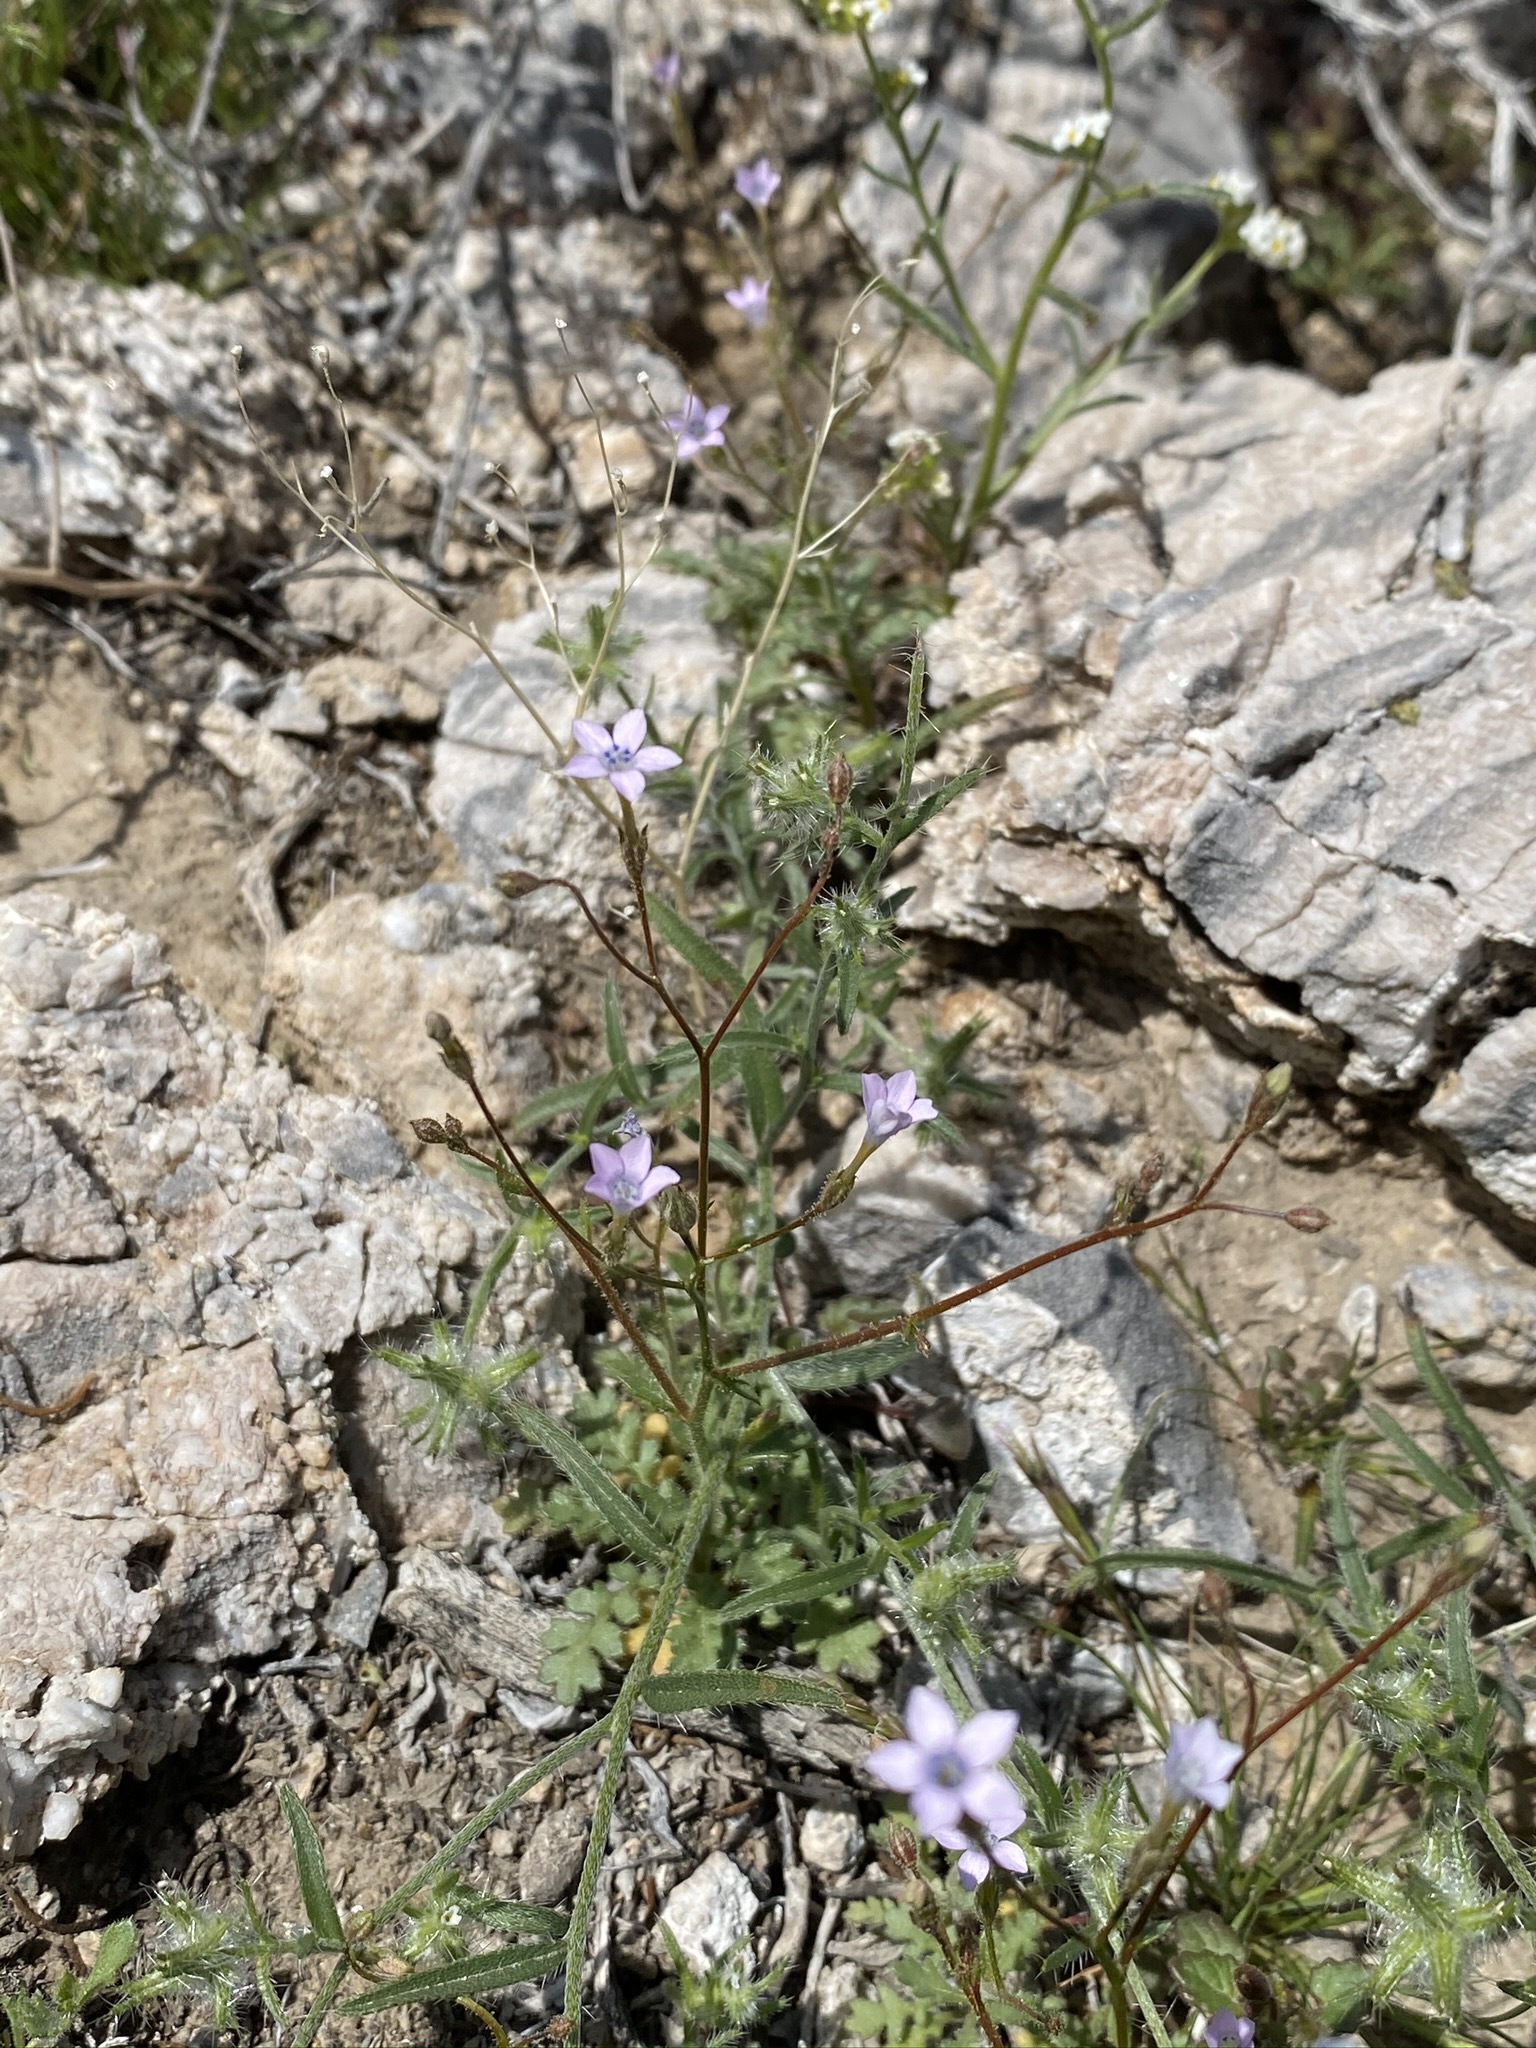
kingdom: Plantae
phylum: Tracheophyta
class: Magnoliopsida
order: Ericales
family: Polemoniaceae
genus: Gilia
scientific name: Gilia scopulorum
